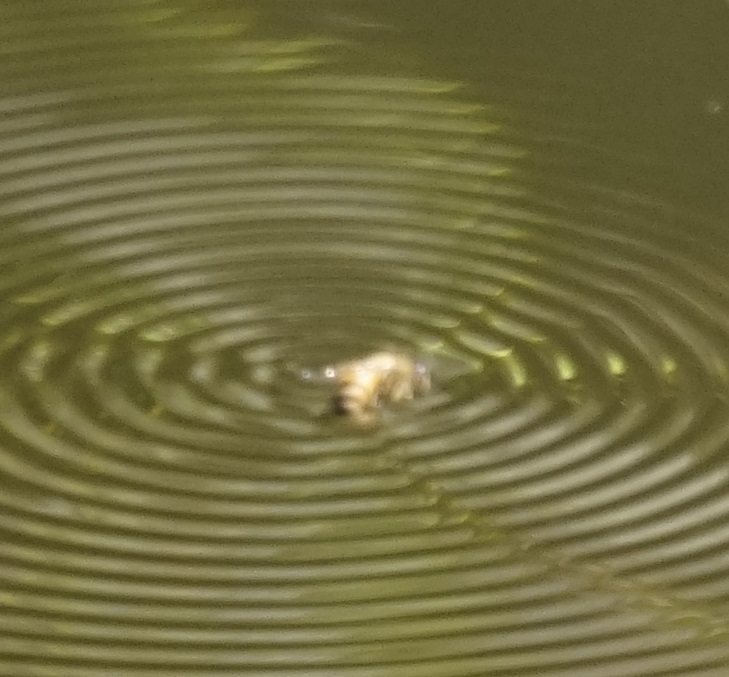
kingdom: Animalia
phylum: Arthropoda
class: Insecta
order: Hymenoptera
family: Apidae
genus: Apis
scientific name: Apis mellifera
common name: Honey bee
